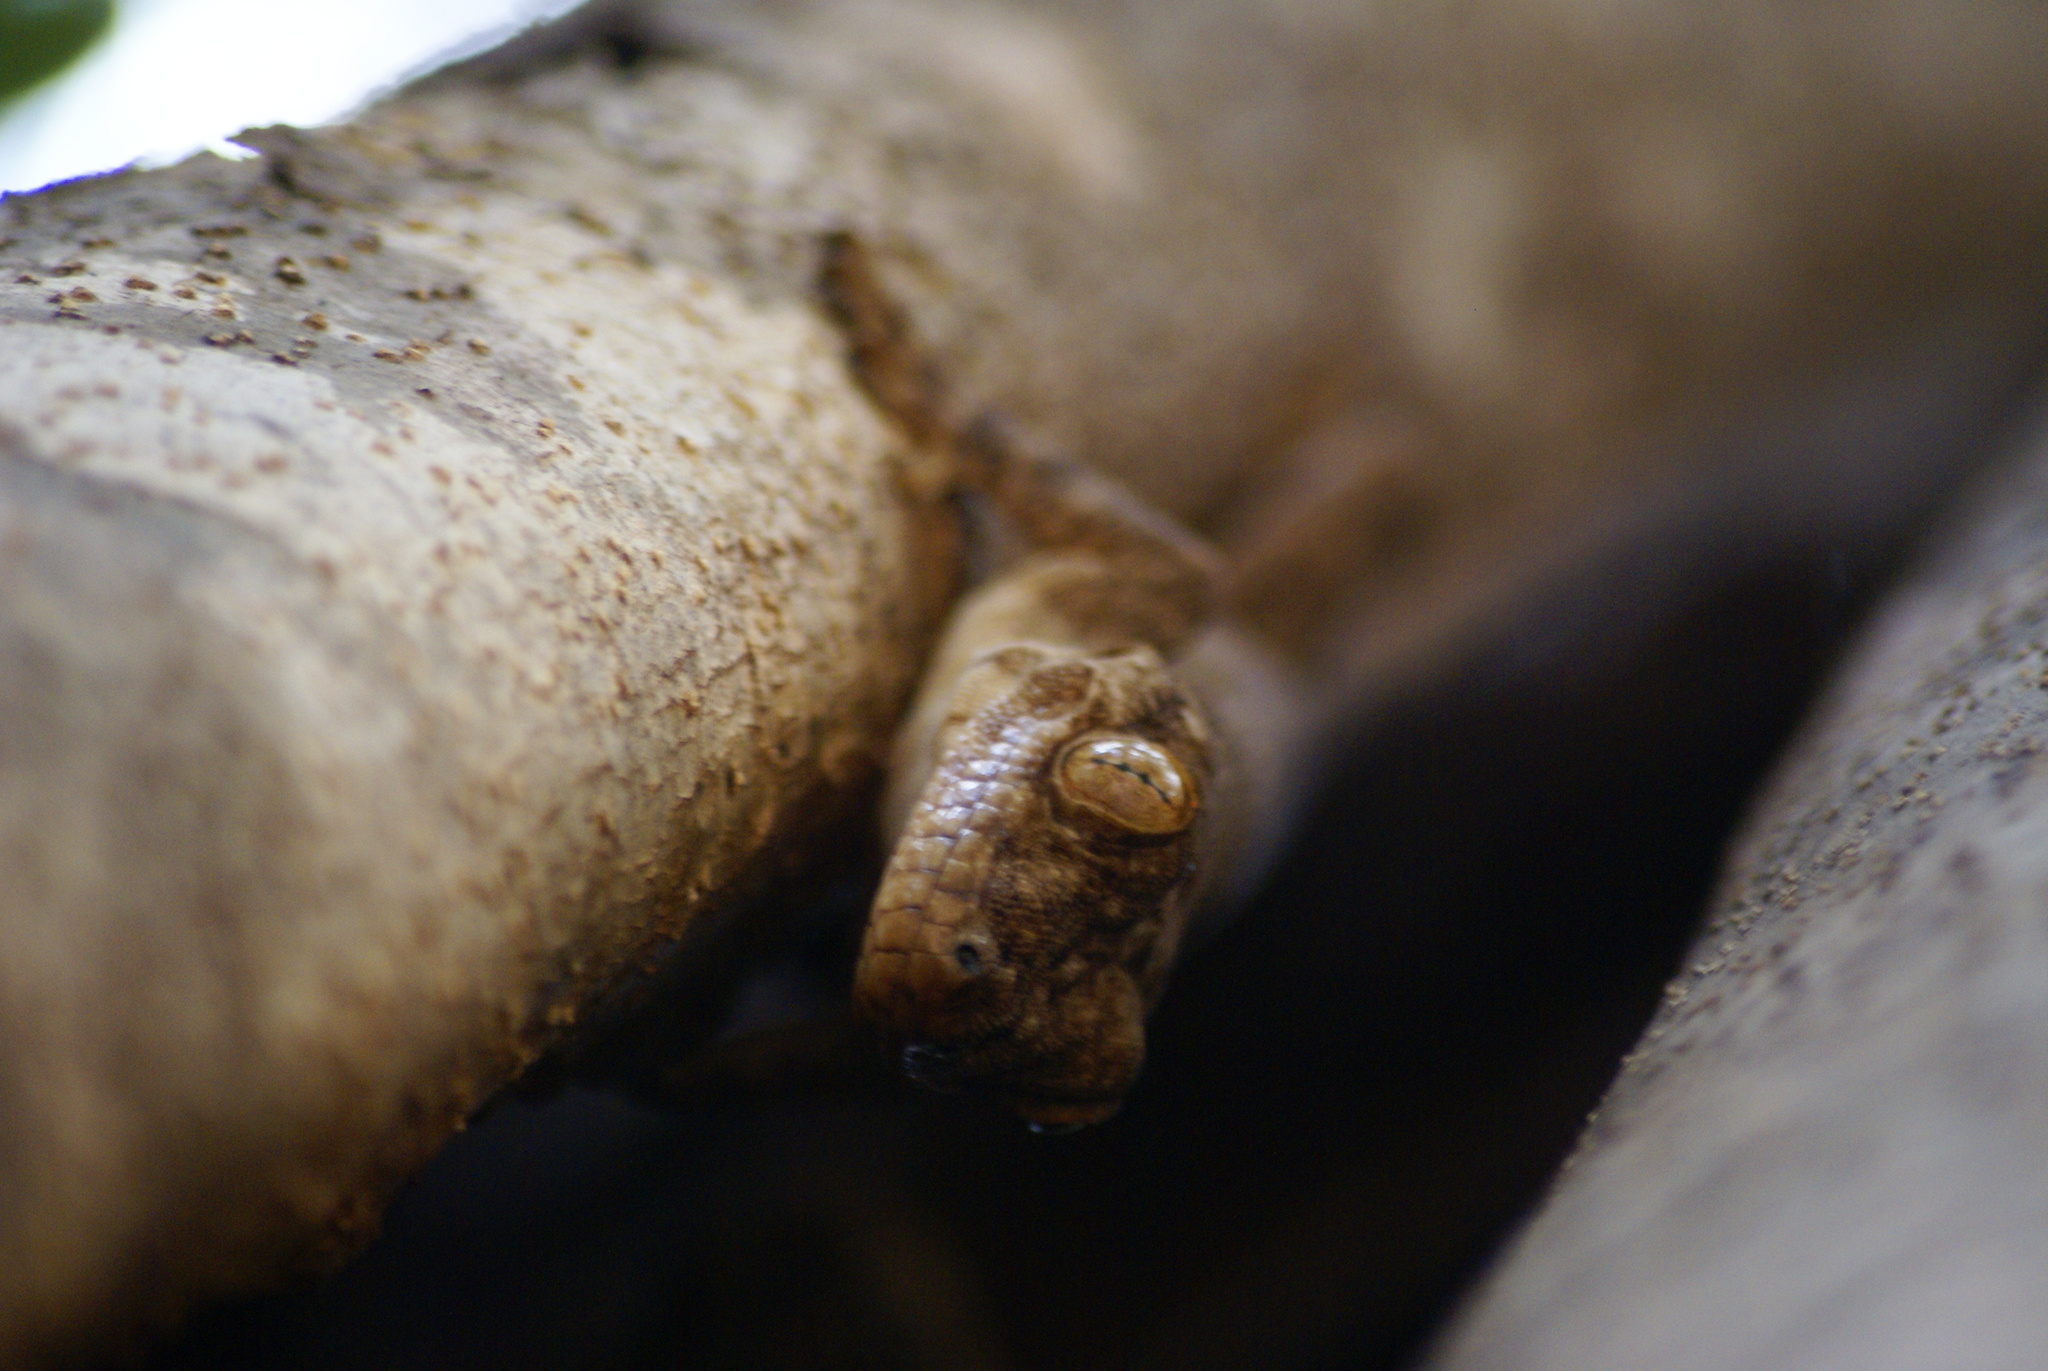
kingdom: Animalia
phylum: Chordata
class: Squamata
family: Gekkonidae
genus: Blaesodactylus
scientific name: Blaesodactylus boivini
